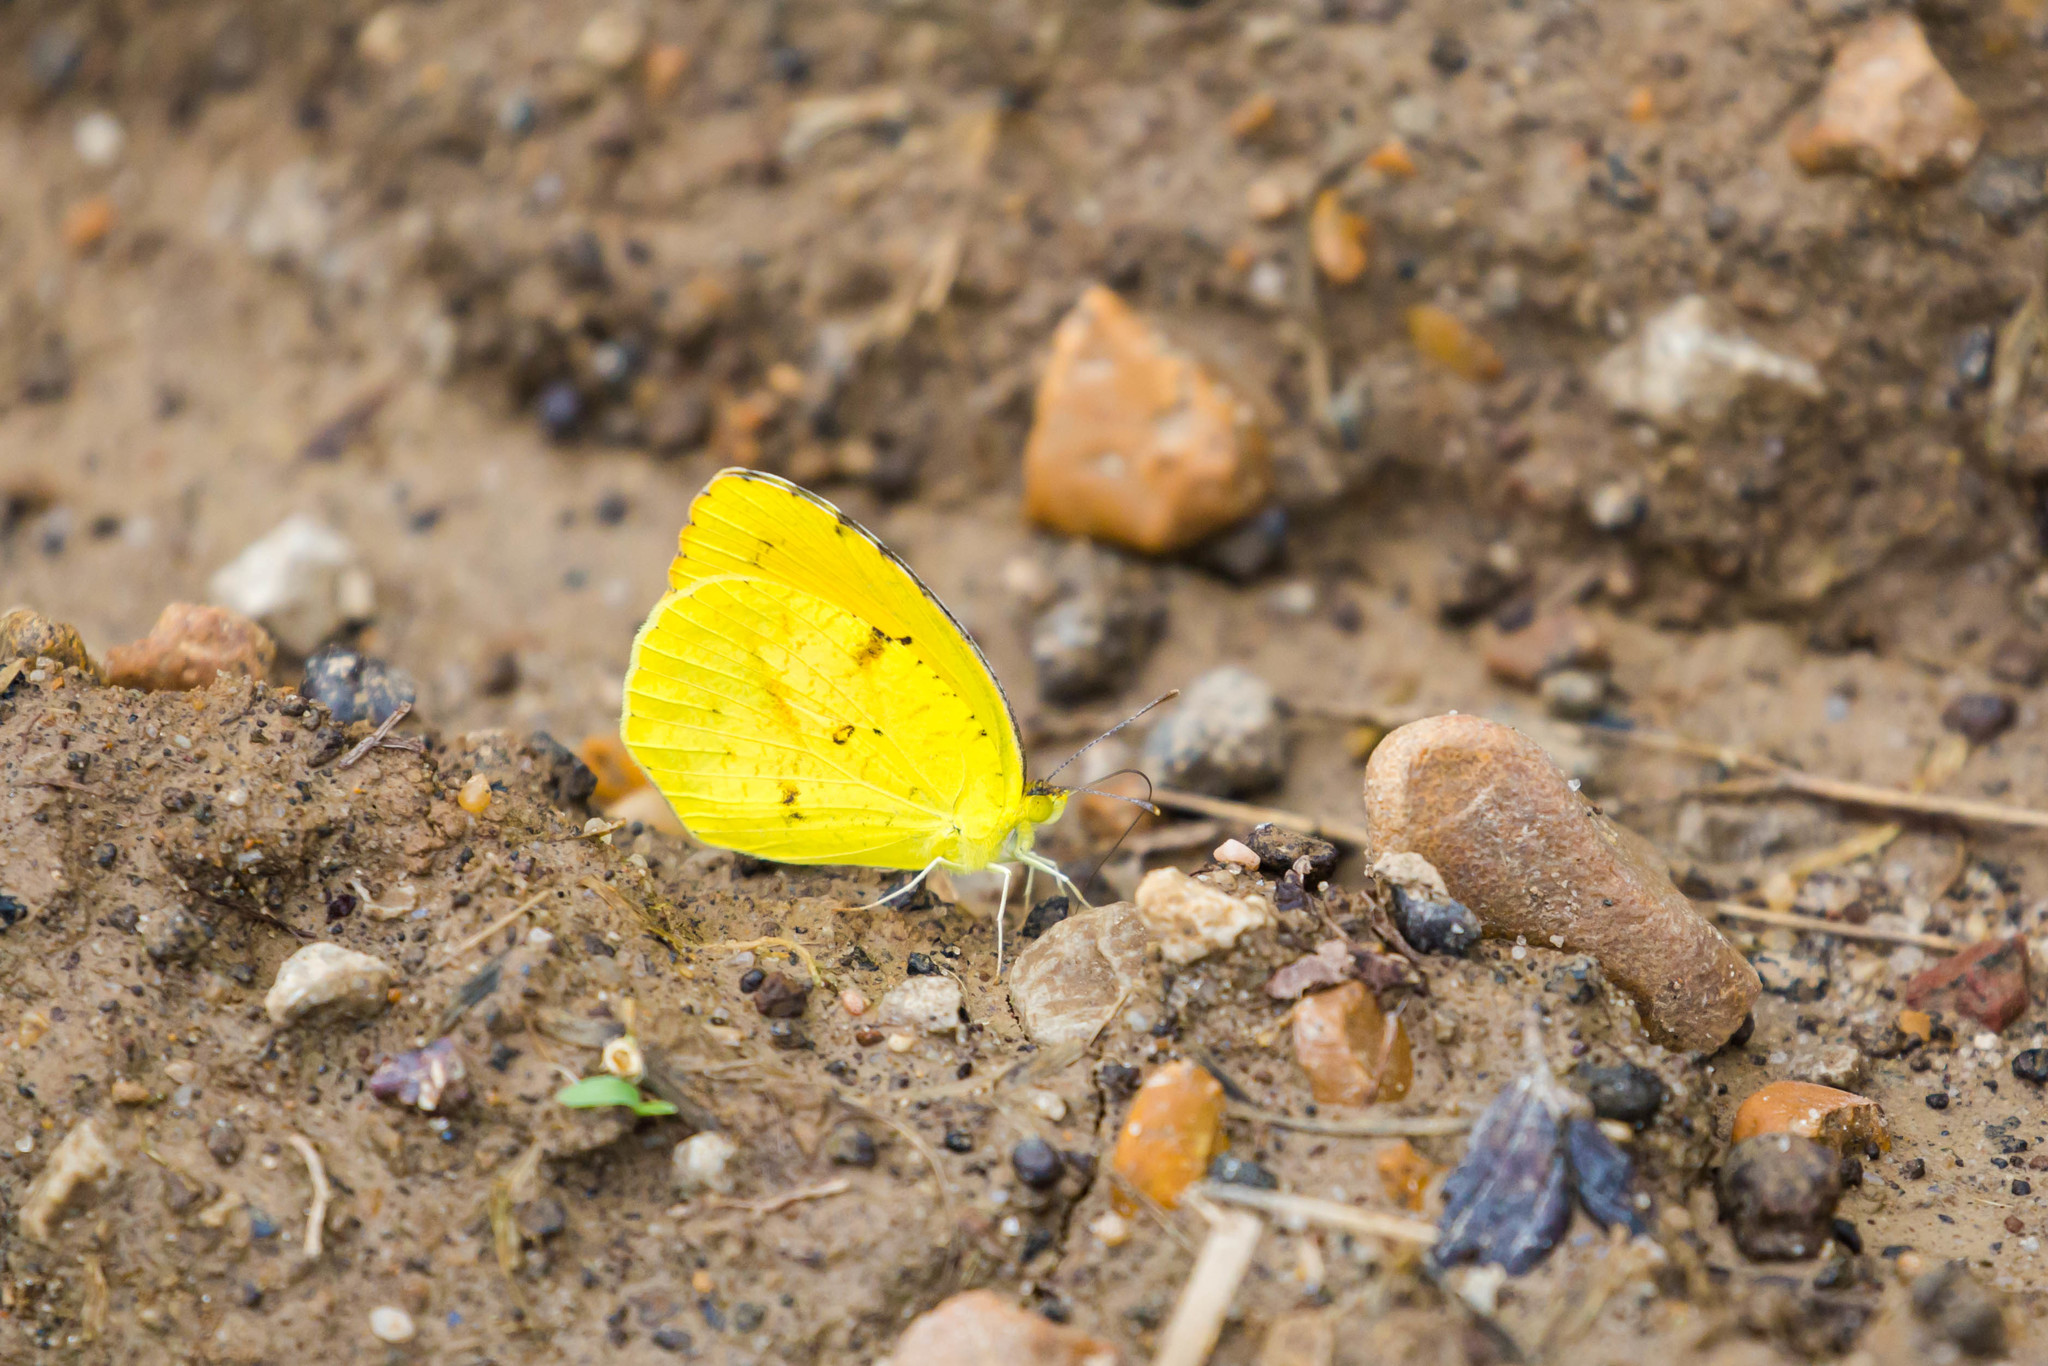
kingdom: Animalia
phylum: Arthropoda
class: Insecta
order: Lepidoptera
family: Pieridae
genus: Abaeis
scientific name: Abaeis nicippe
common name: Sleepy orange
